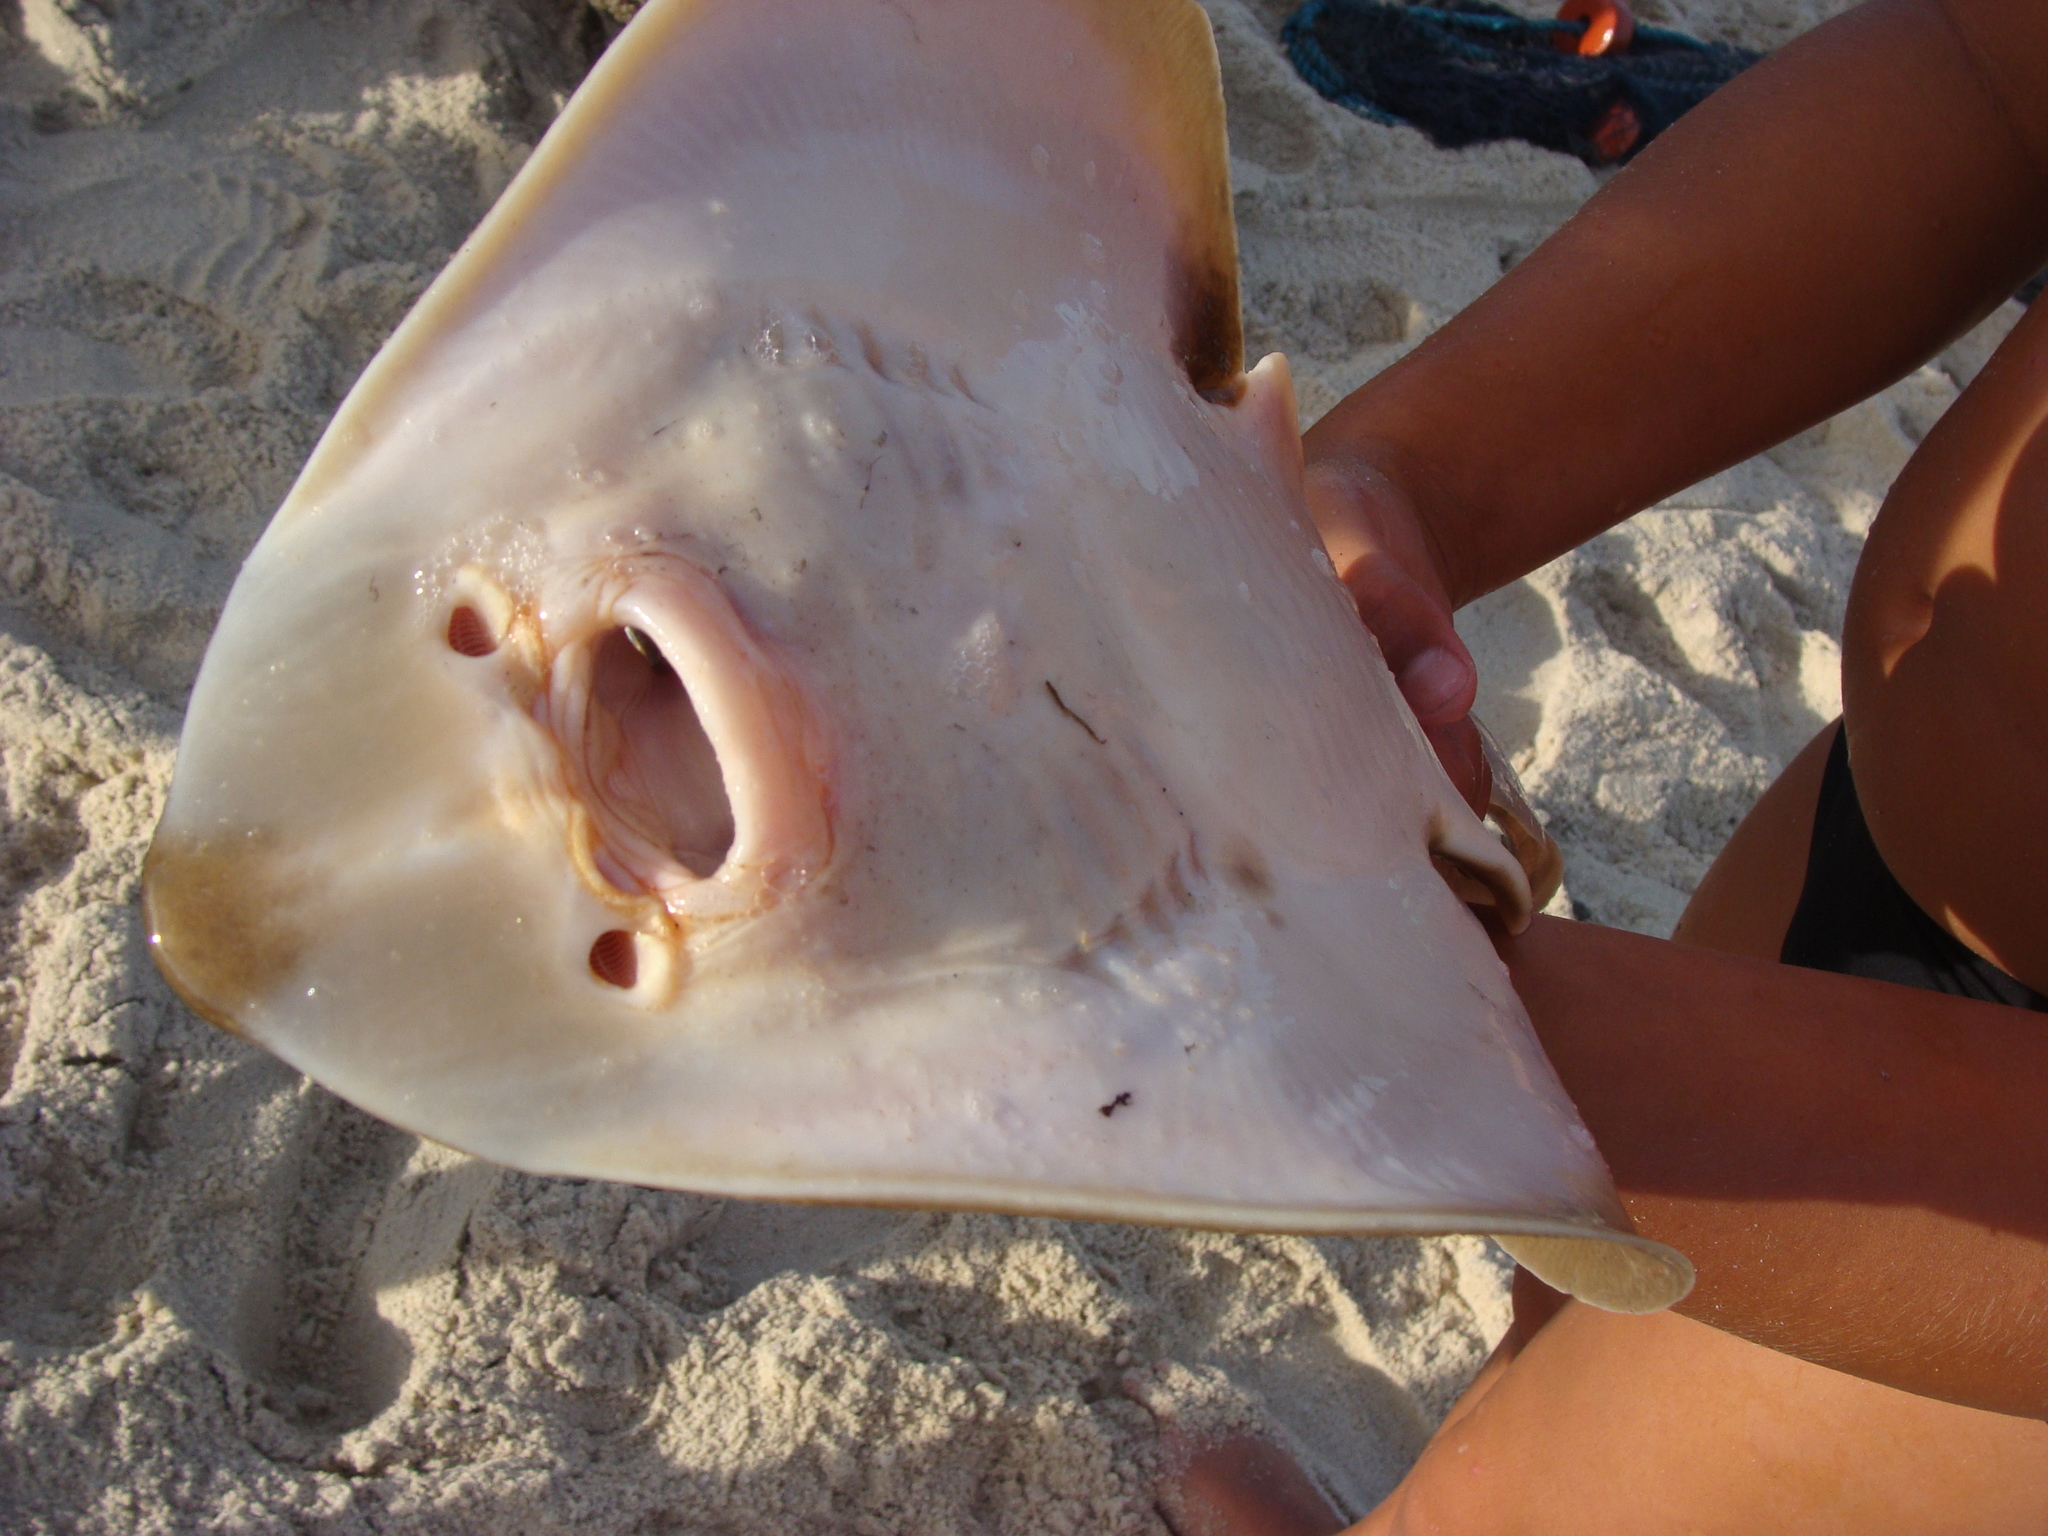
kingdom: Animalia
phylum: Chordata
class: Elasmobranchii
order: Rhinopristiformes
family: Rhinobatidae
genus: Zapteryx
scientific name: Zapteryx brevirostris
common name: Lesser guitarfish
